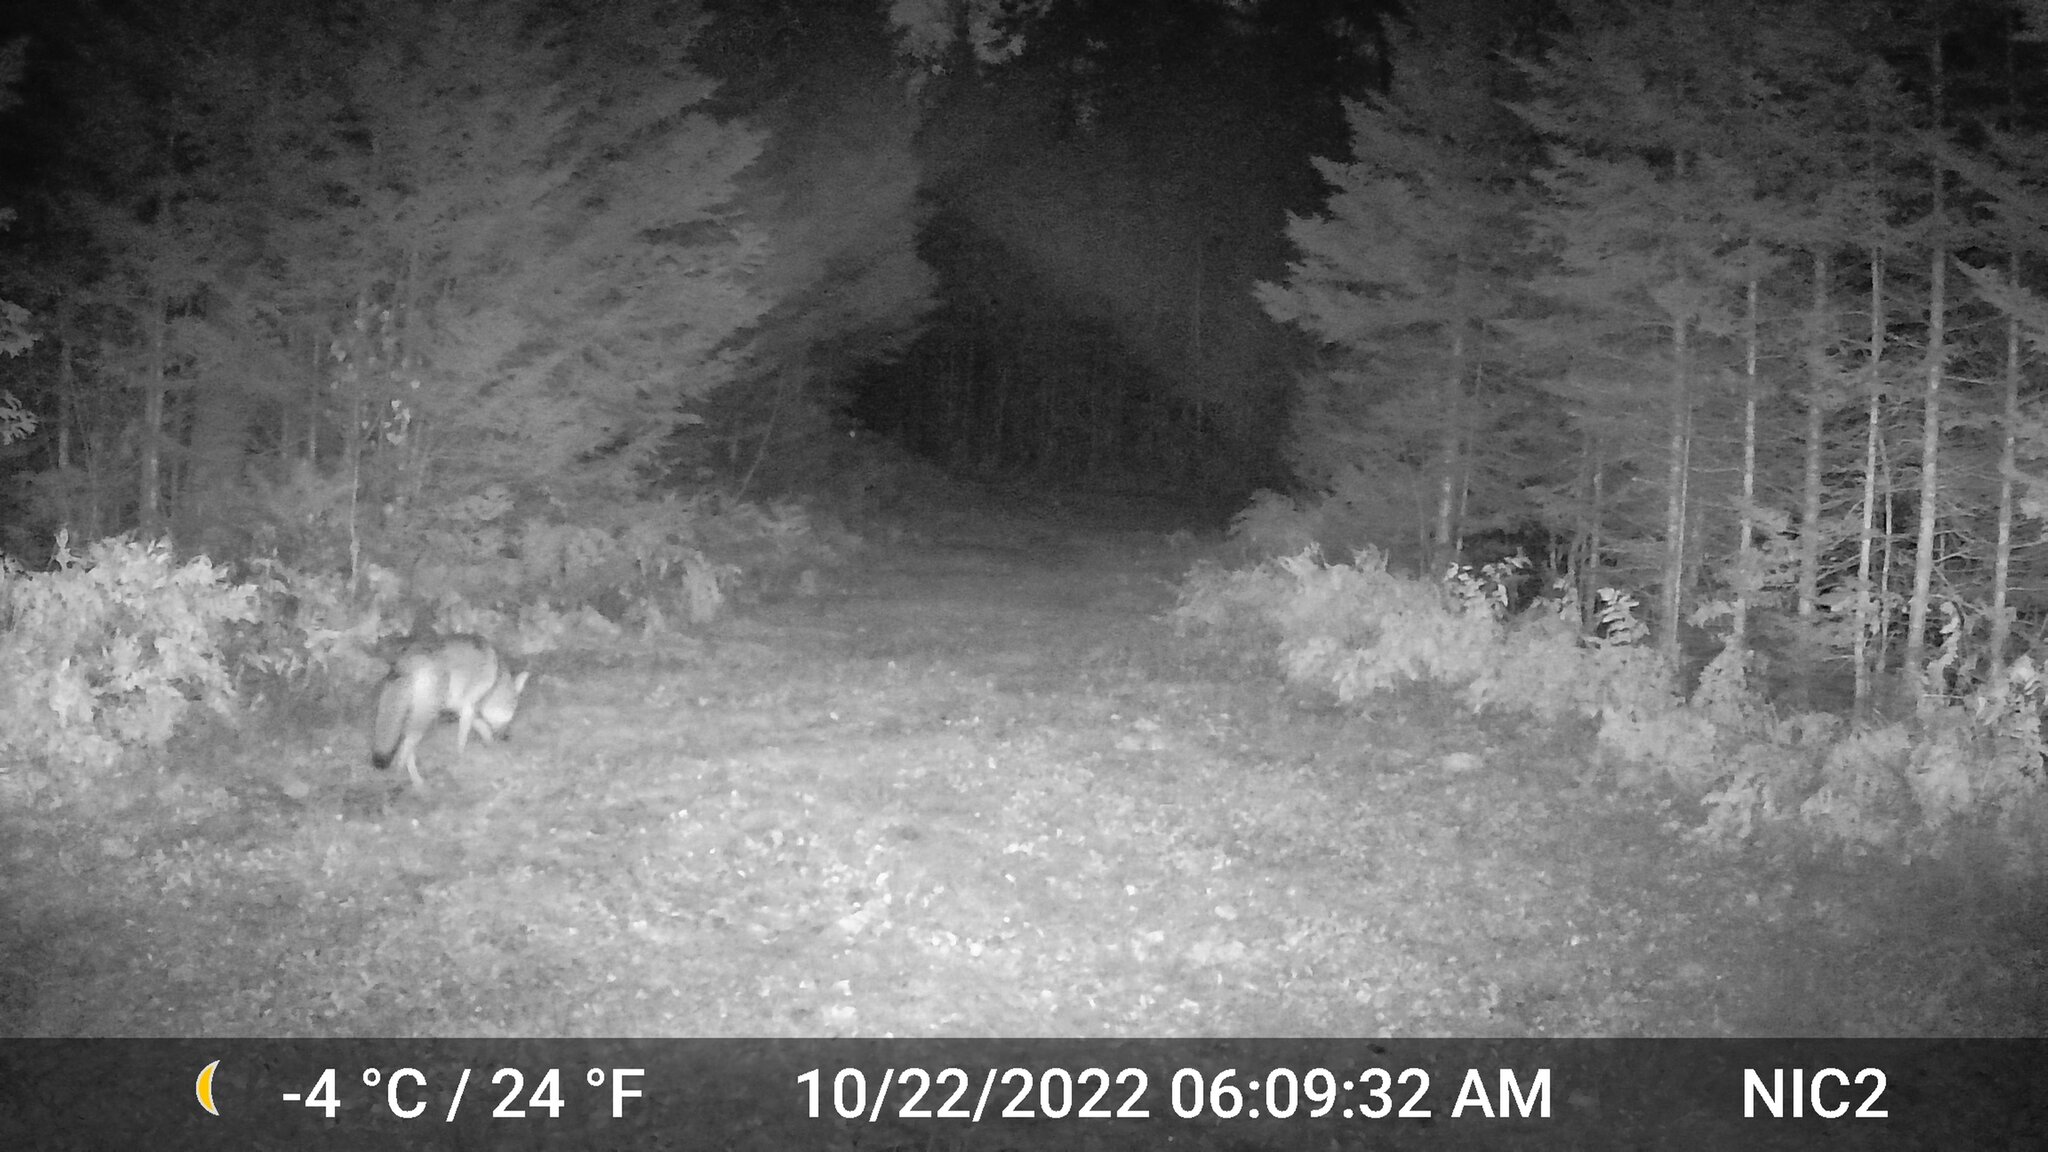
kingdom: Animalia
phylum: Chordata
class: Mammalia
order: Carnivora
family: Canidae
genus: Canis
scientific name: Canis latrans
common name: Coyote
